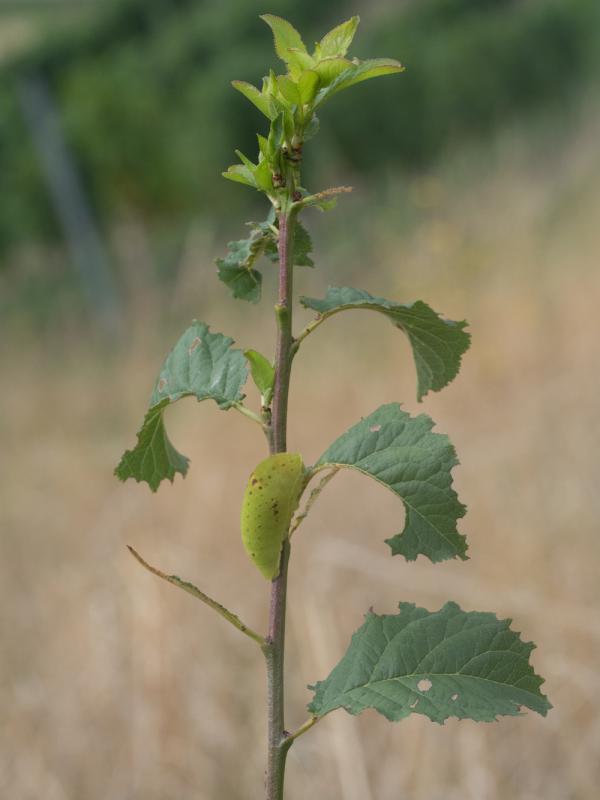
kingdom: Animalia
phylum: Arthropoda
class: Insecta
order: Lepidoptera
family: Papilionidae
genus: Iphiclides
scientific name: Iphiclides podalirius
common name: Scarce swallowtail
